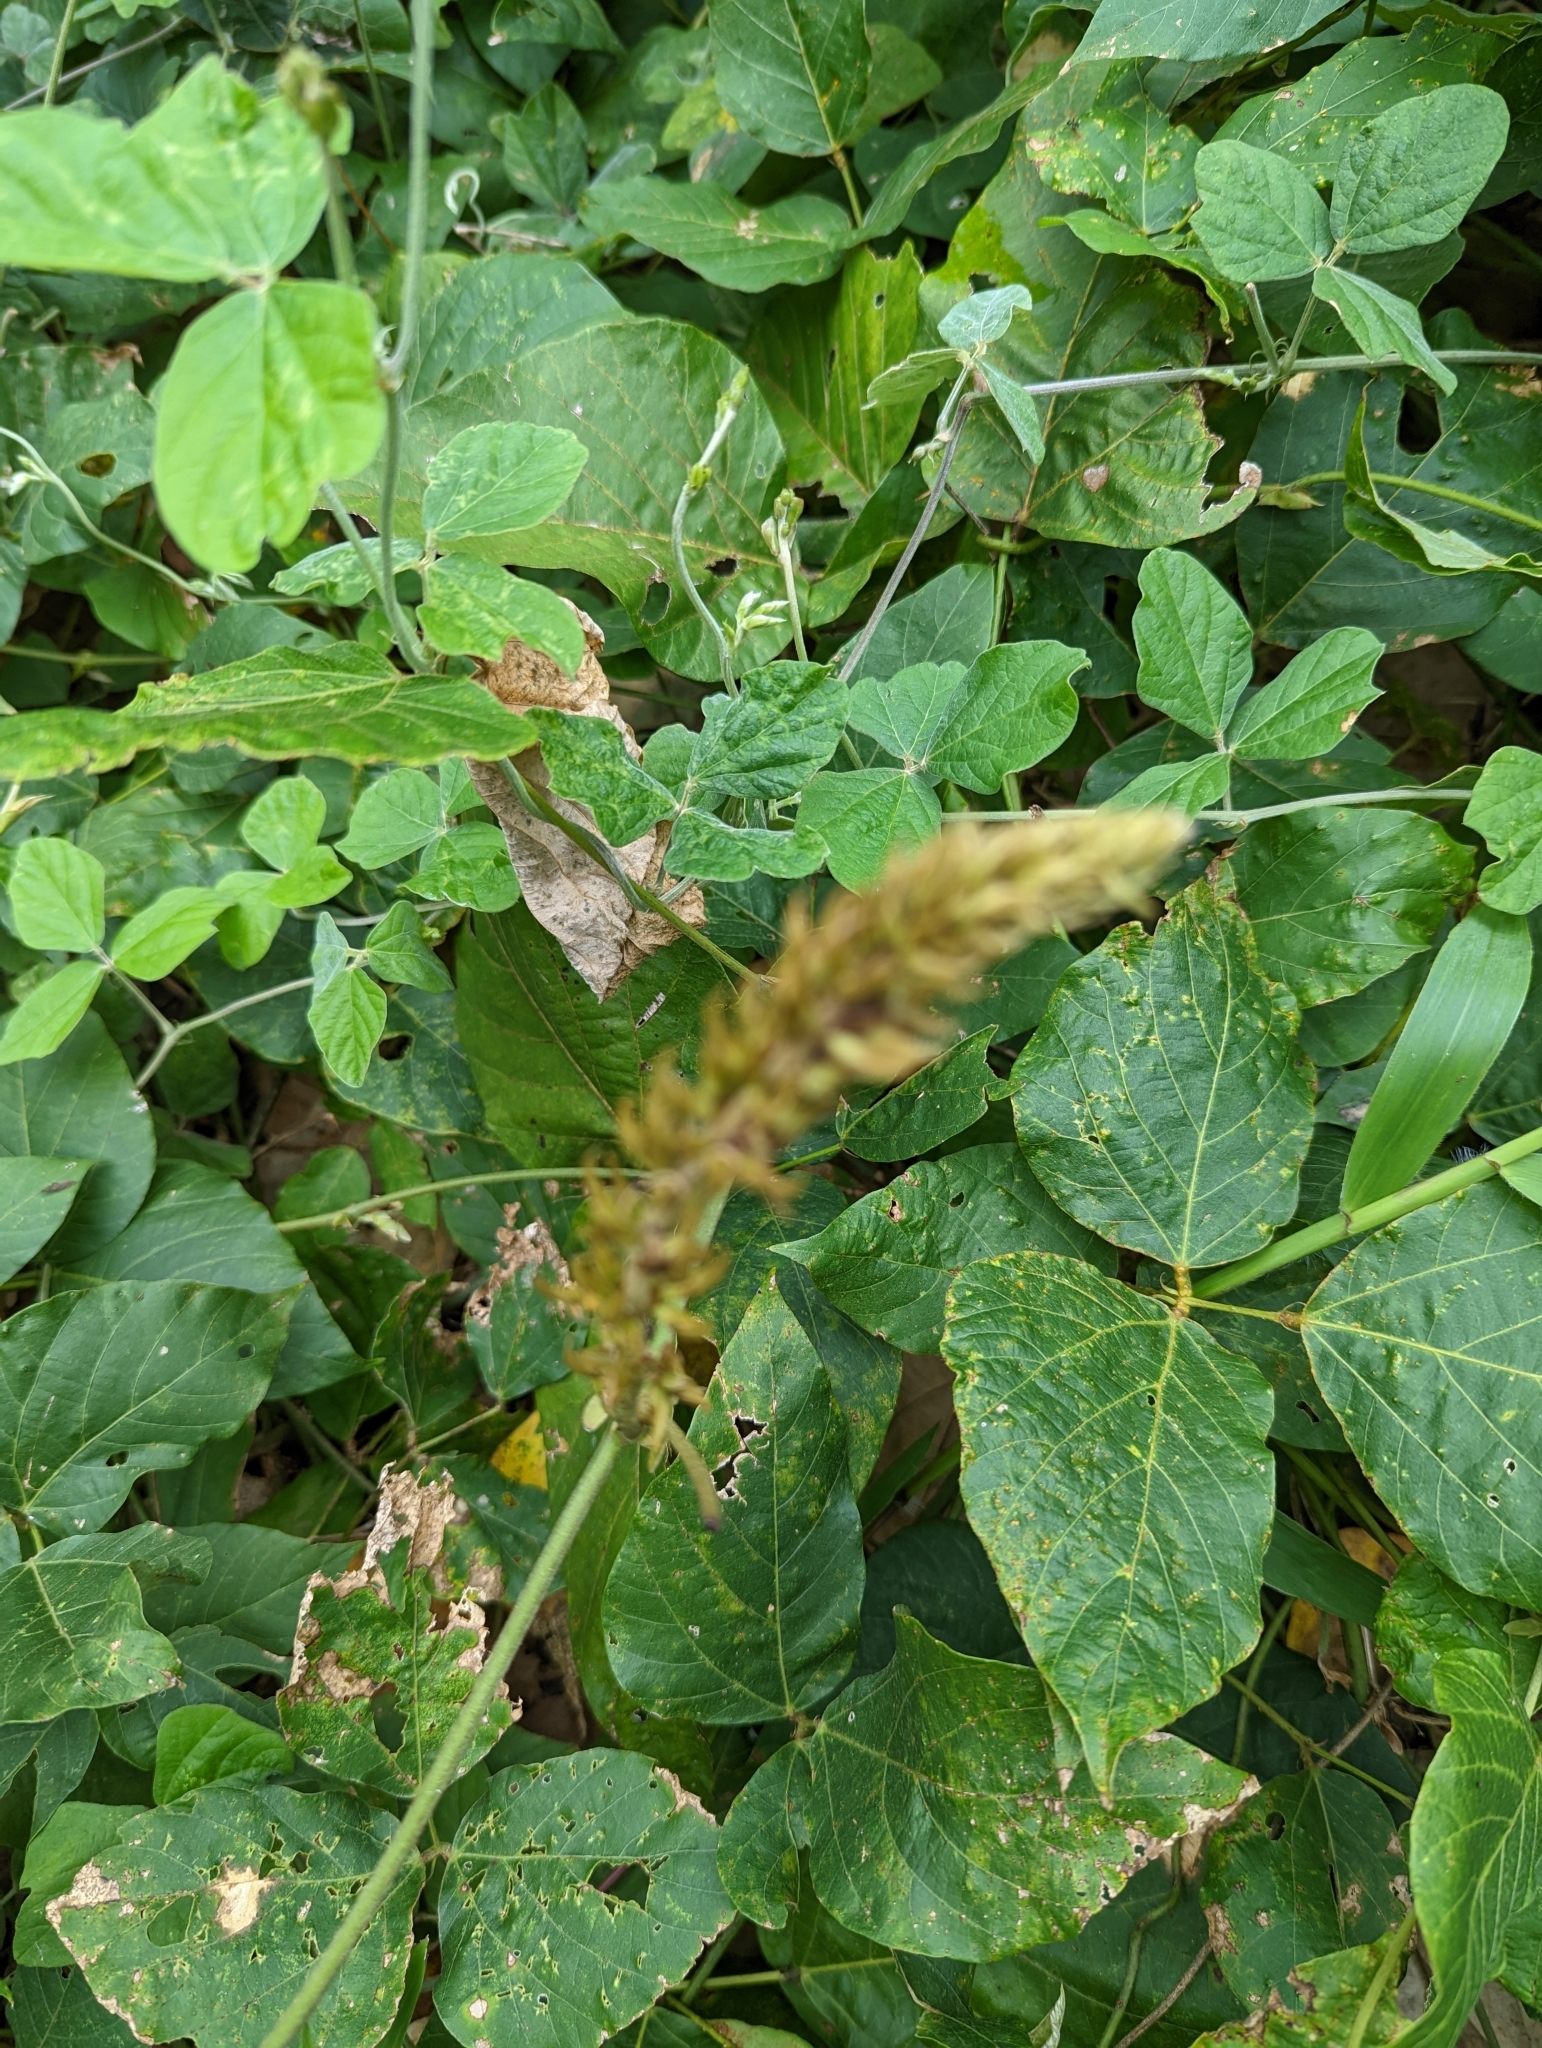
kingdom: Plantae
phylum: Tracheophyta
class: Magnoliopsida
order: Fabales
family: Fabaceae
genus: Pueraria
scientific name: Pueraria montana
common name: Kudzu
